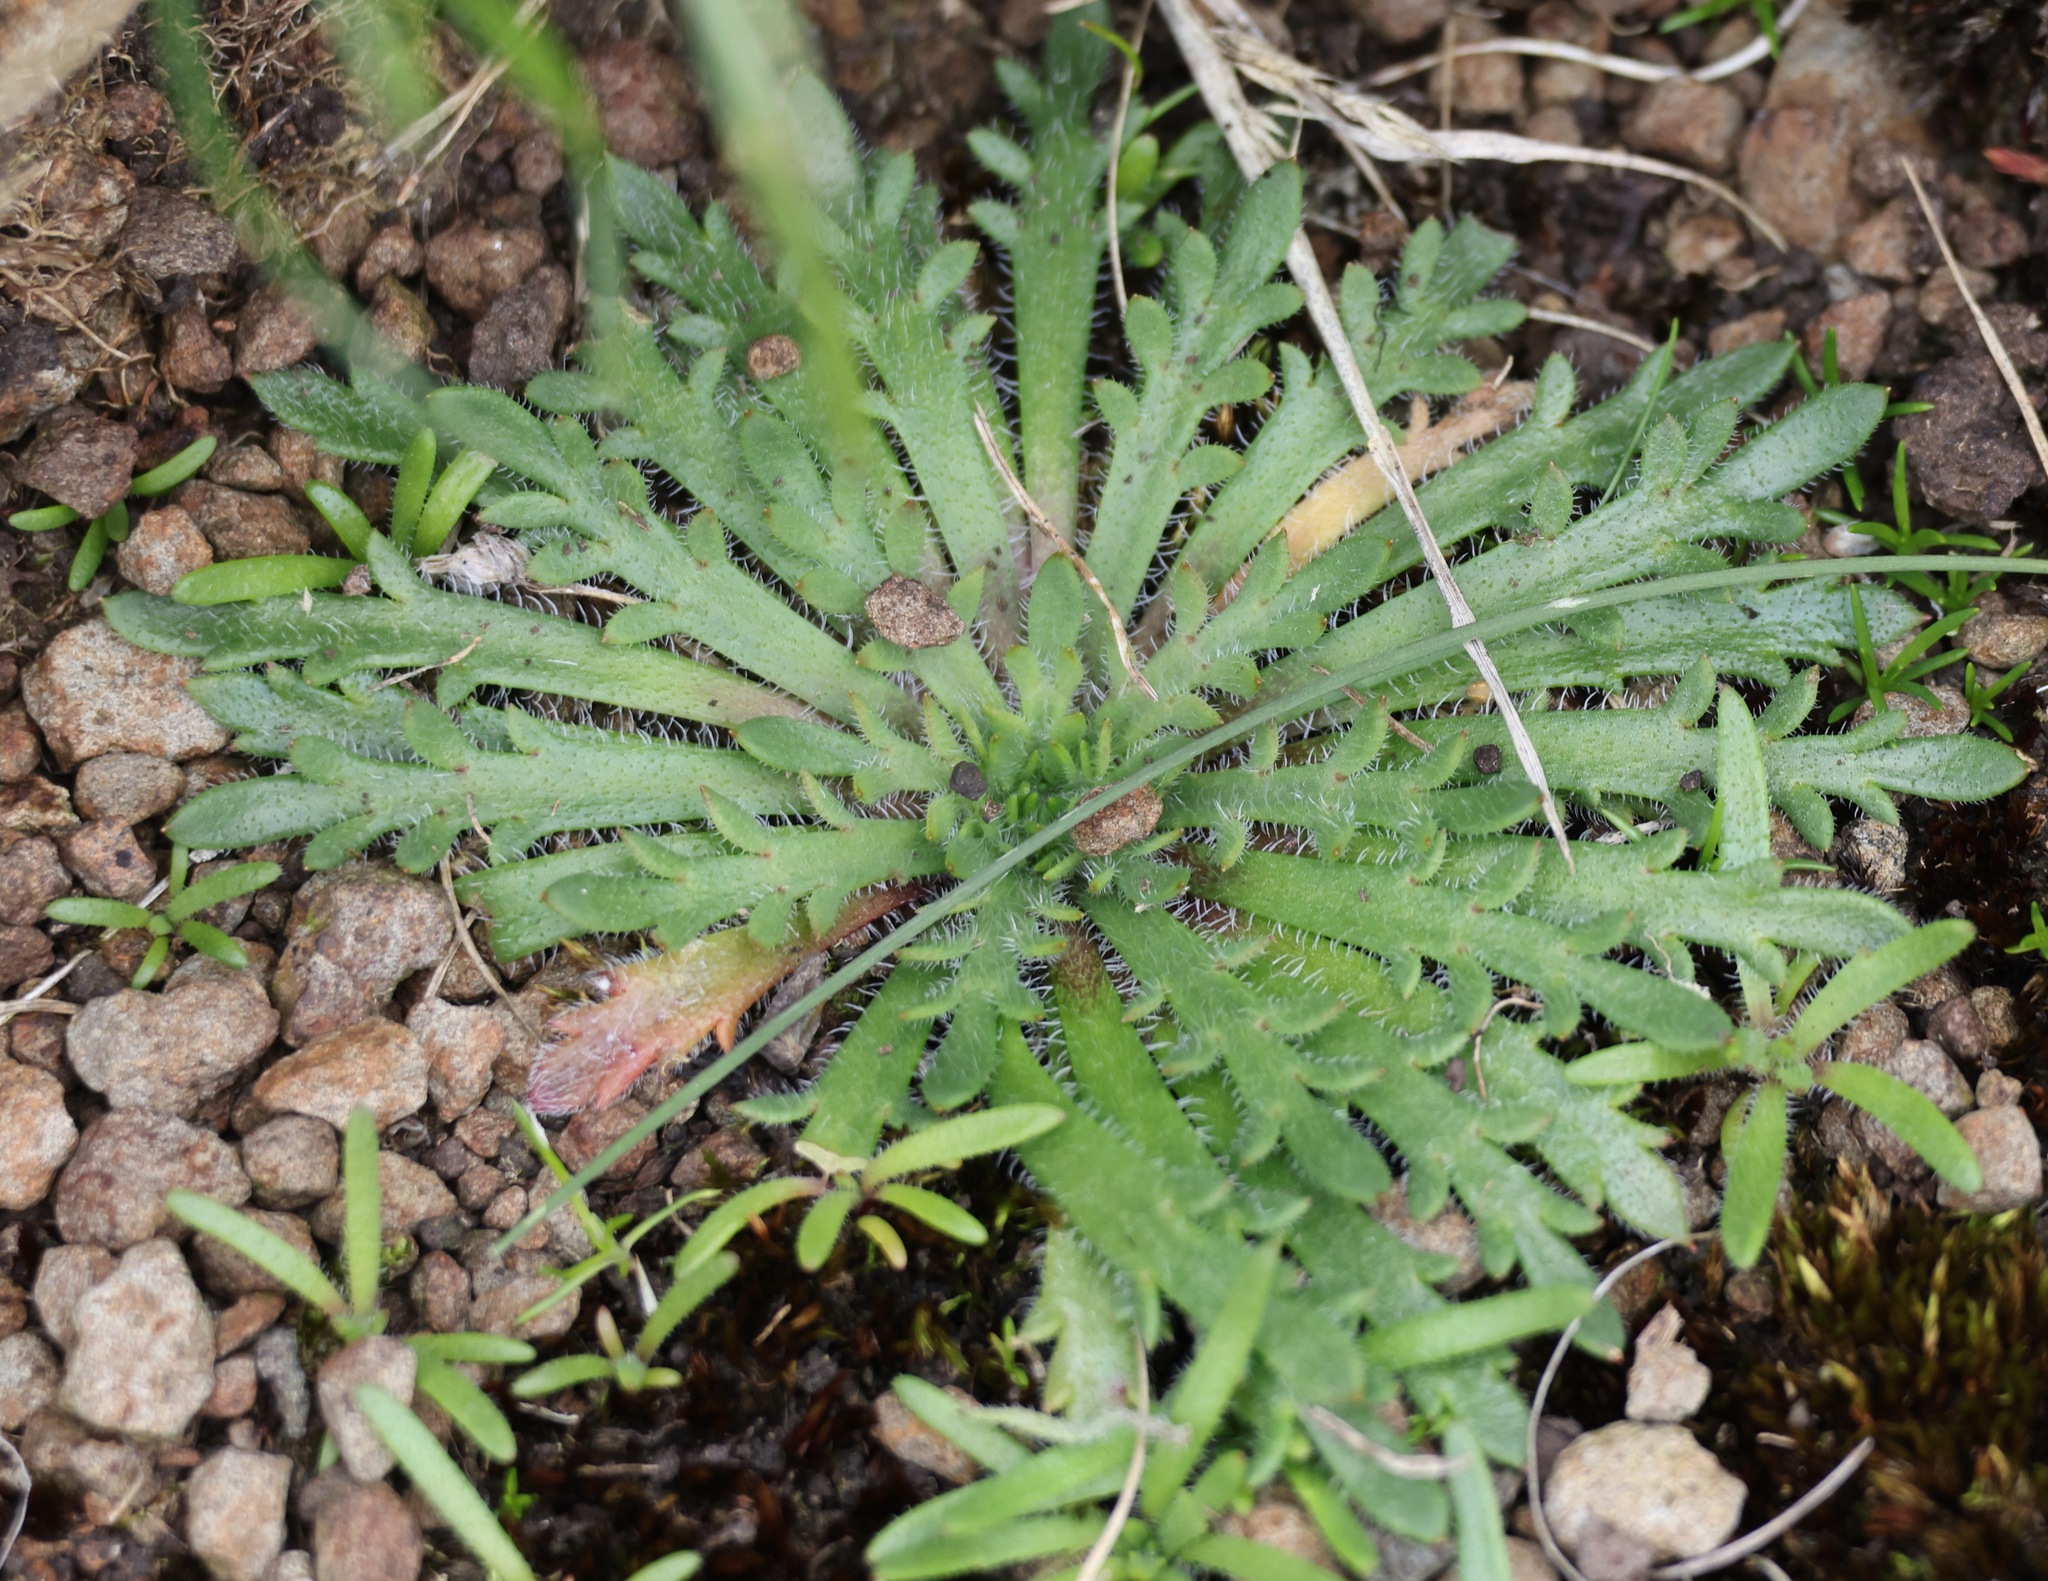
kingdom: Plantae
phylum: Tracheophyta
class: Magnoliopsida
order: Lamiales
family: Plantaginaceae
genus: Plantago
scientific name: Plantago coronopus
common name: Buck's-horn plantain
